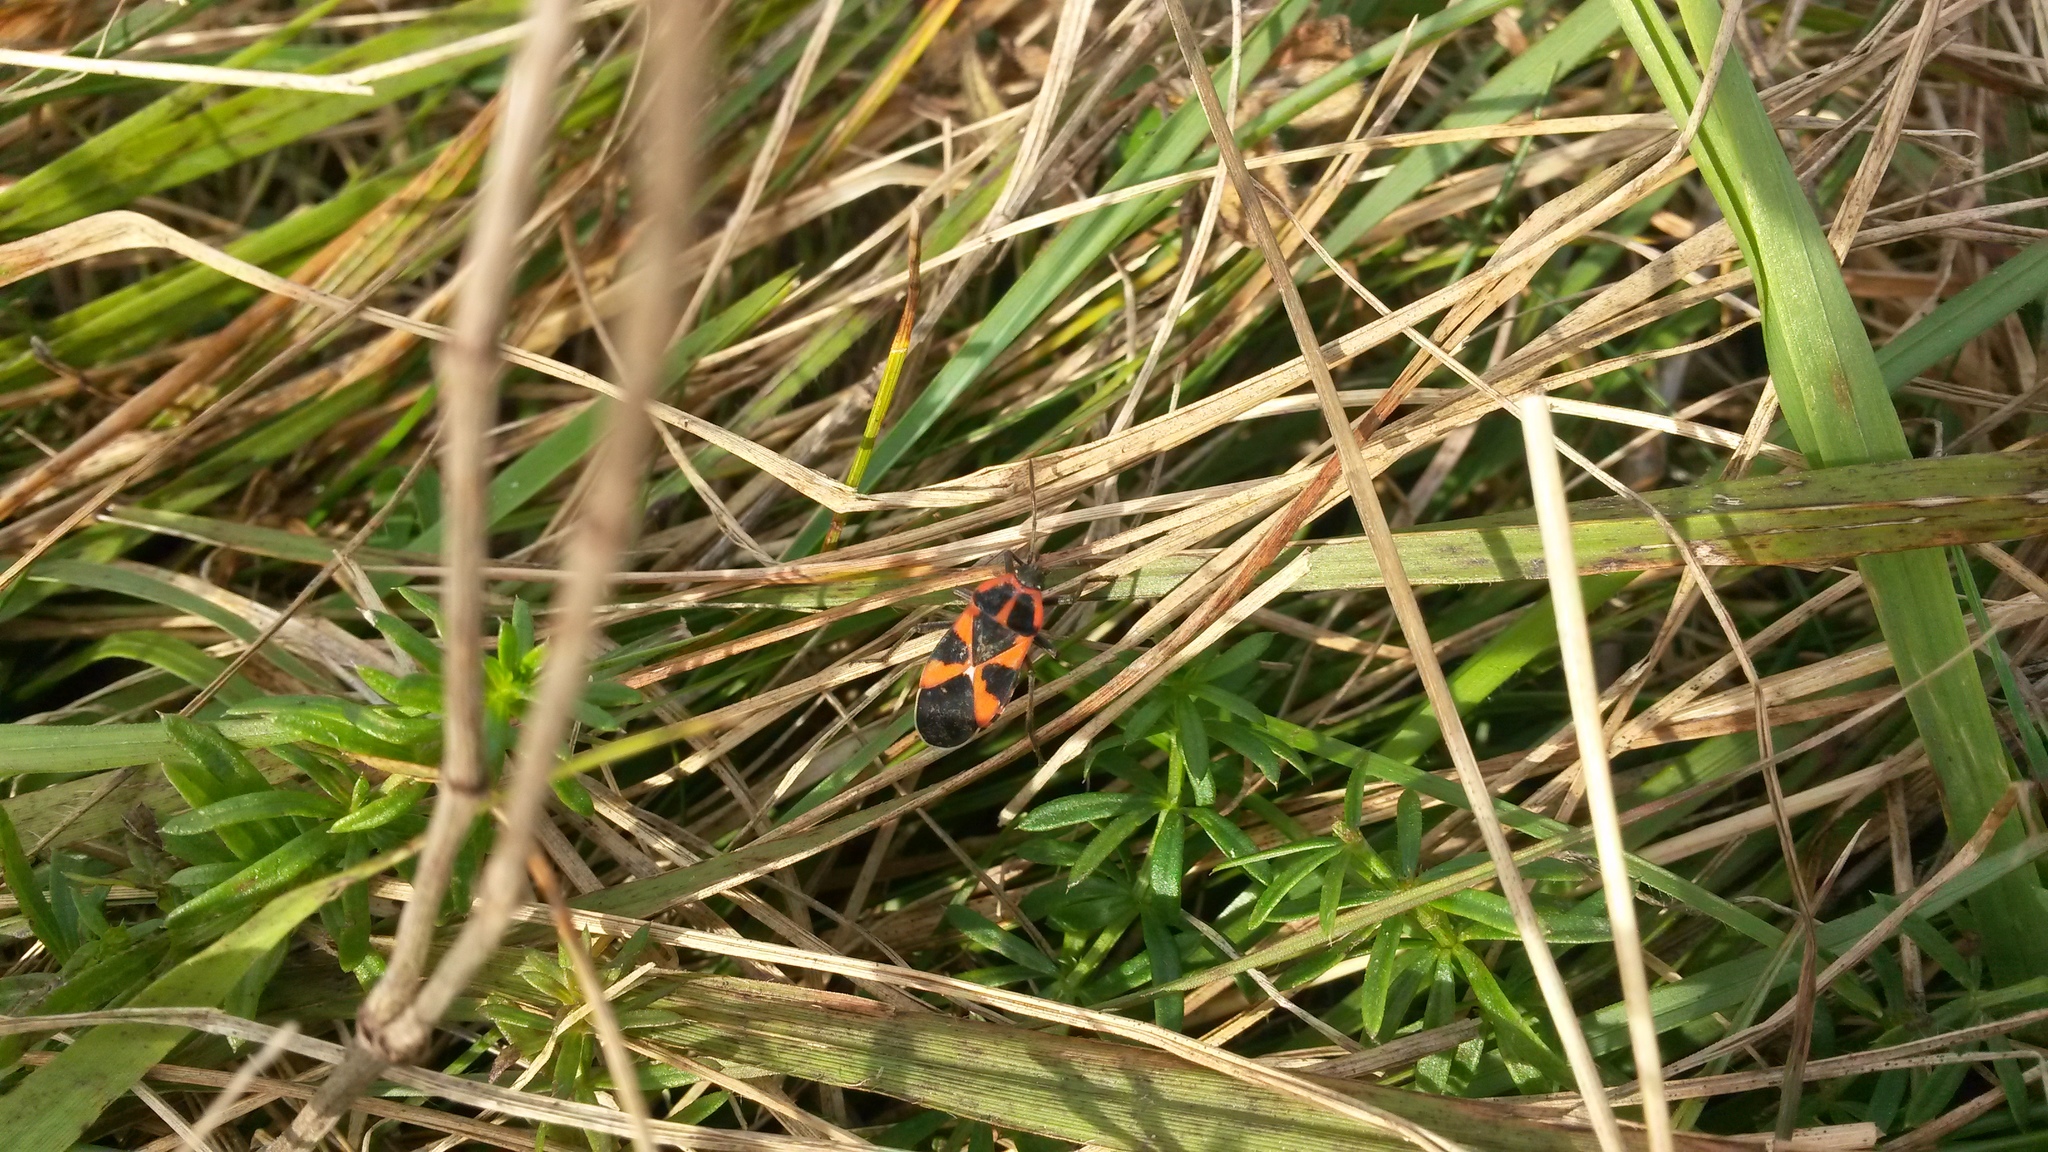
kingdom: Animalia
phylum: Arthropoda
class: Insecta
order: Hemiptera
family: Lygaeidae
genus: Tropidothorax
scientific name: Tropidothorax leucopterus
